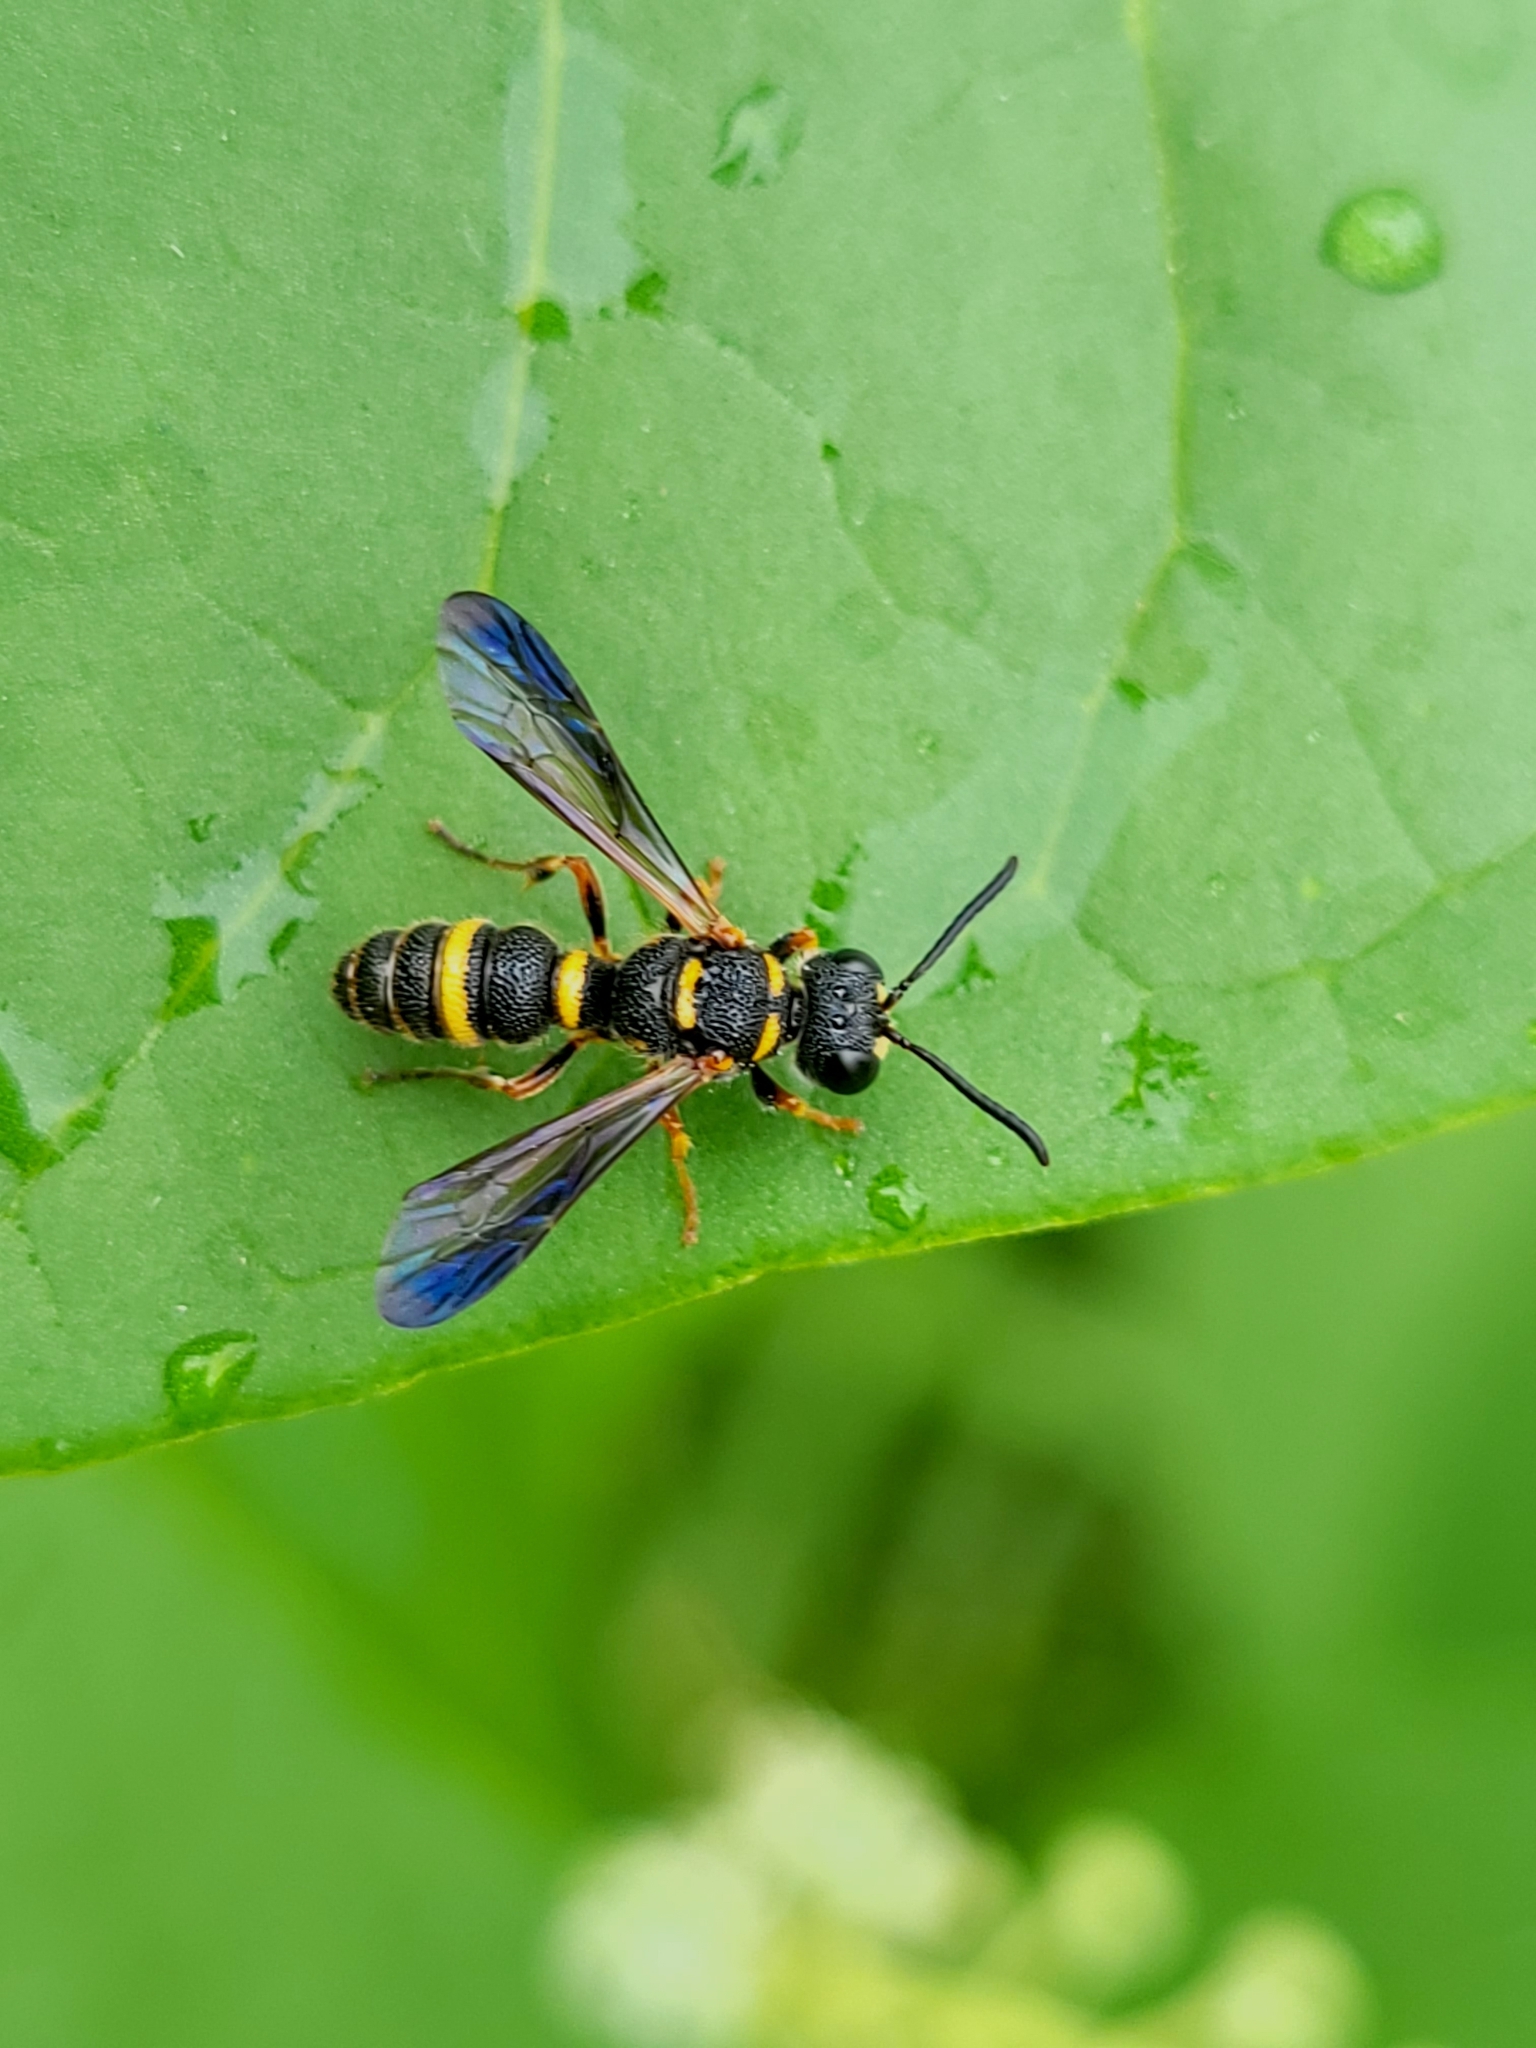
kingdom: Animalia
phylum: Arthropoda
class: Insecta
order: Hymenoptera
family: Crabronidae
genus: Cerceris
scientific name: Cerceris insolita
